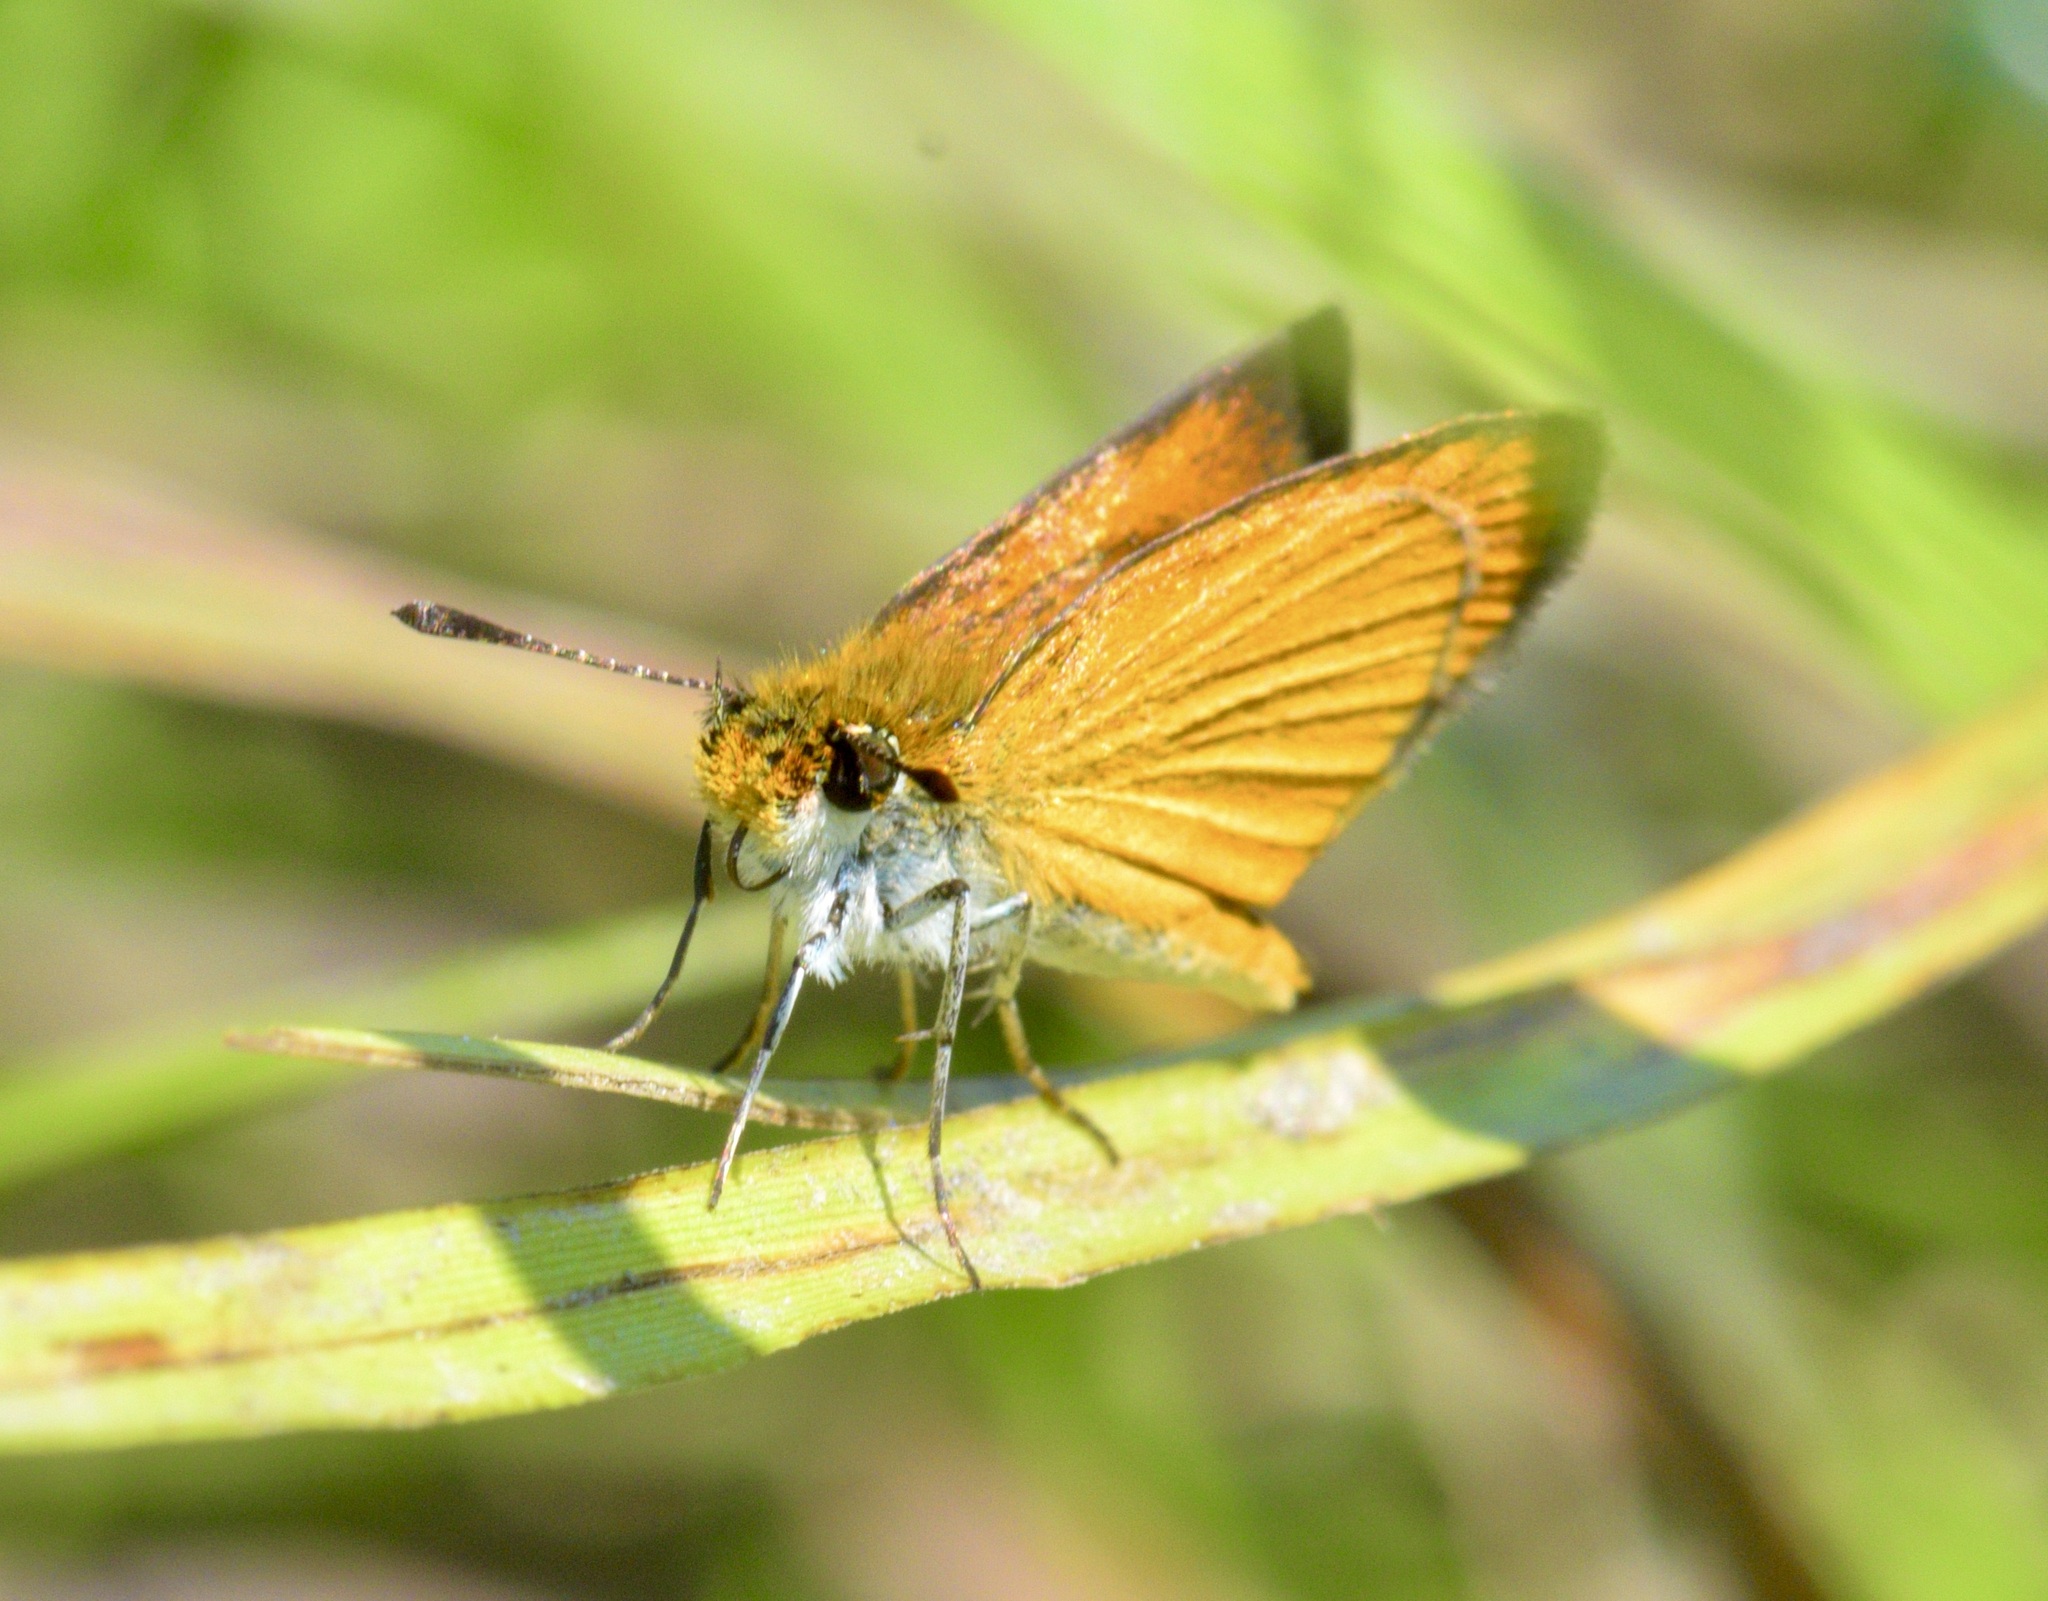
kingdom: Animalia
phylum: Arthropoda
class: Insecta
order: Lepidoptera
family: Hesperiidae
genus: Ancyloxypha
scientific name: Ancyloxypha numitor
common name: Least skipper
